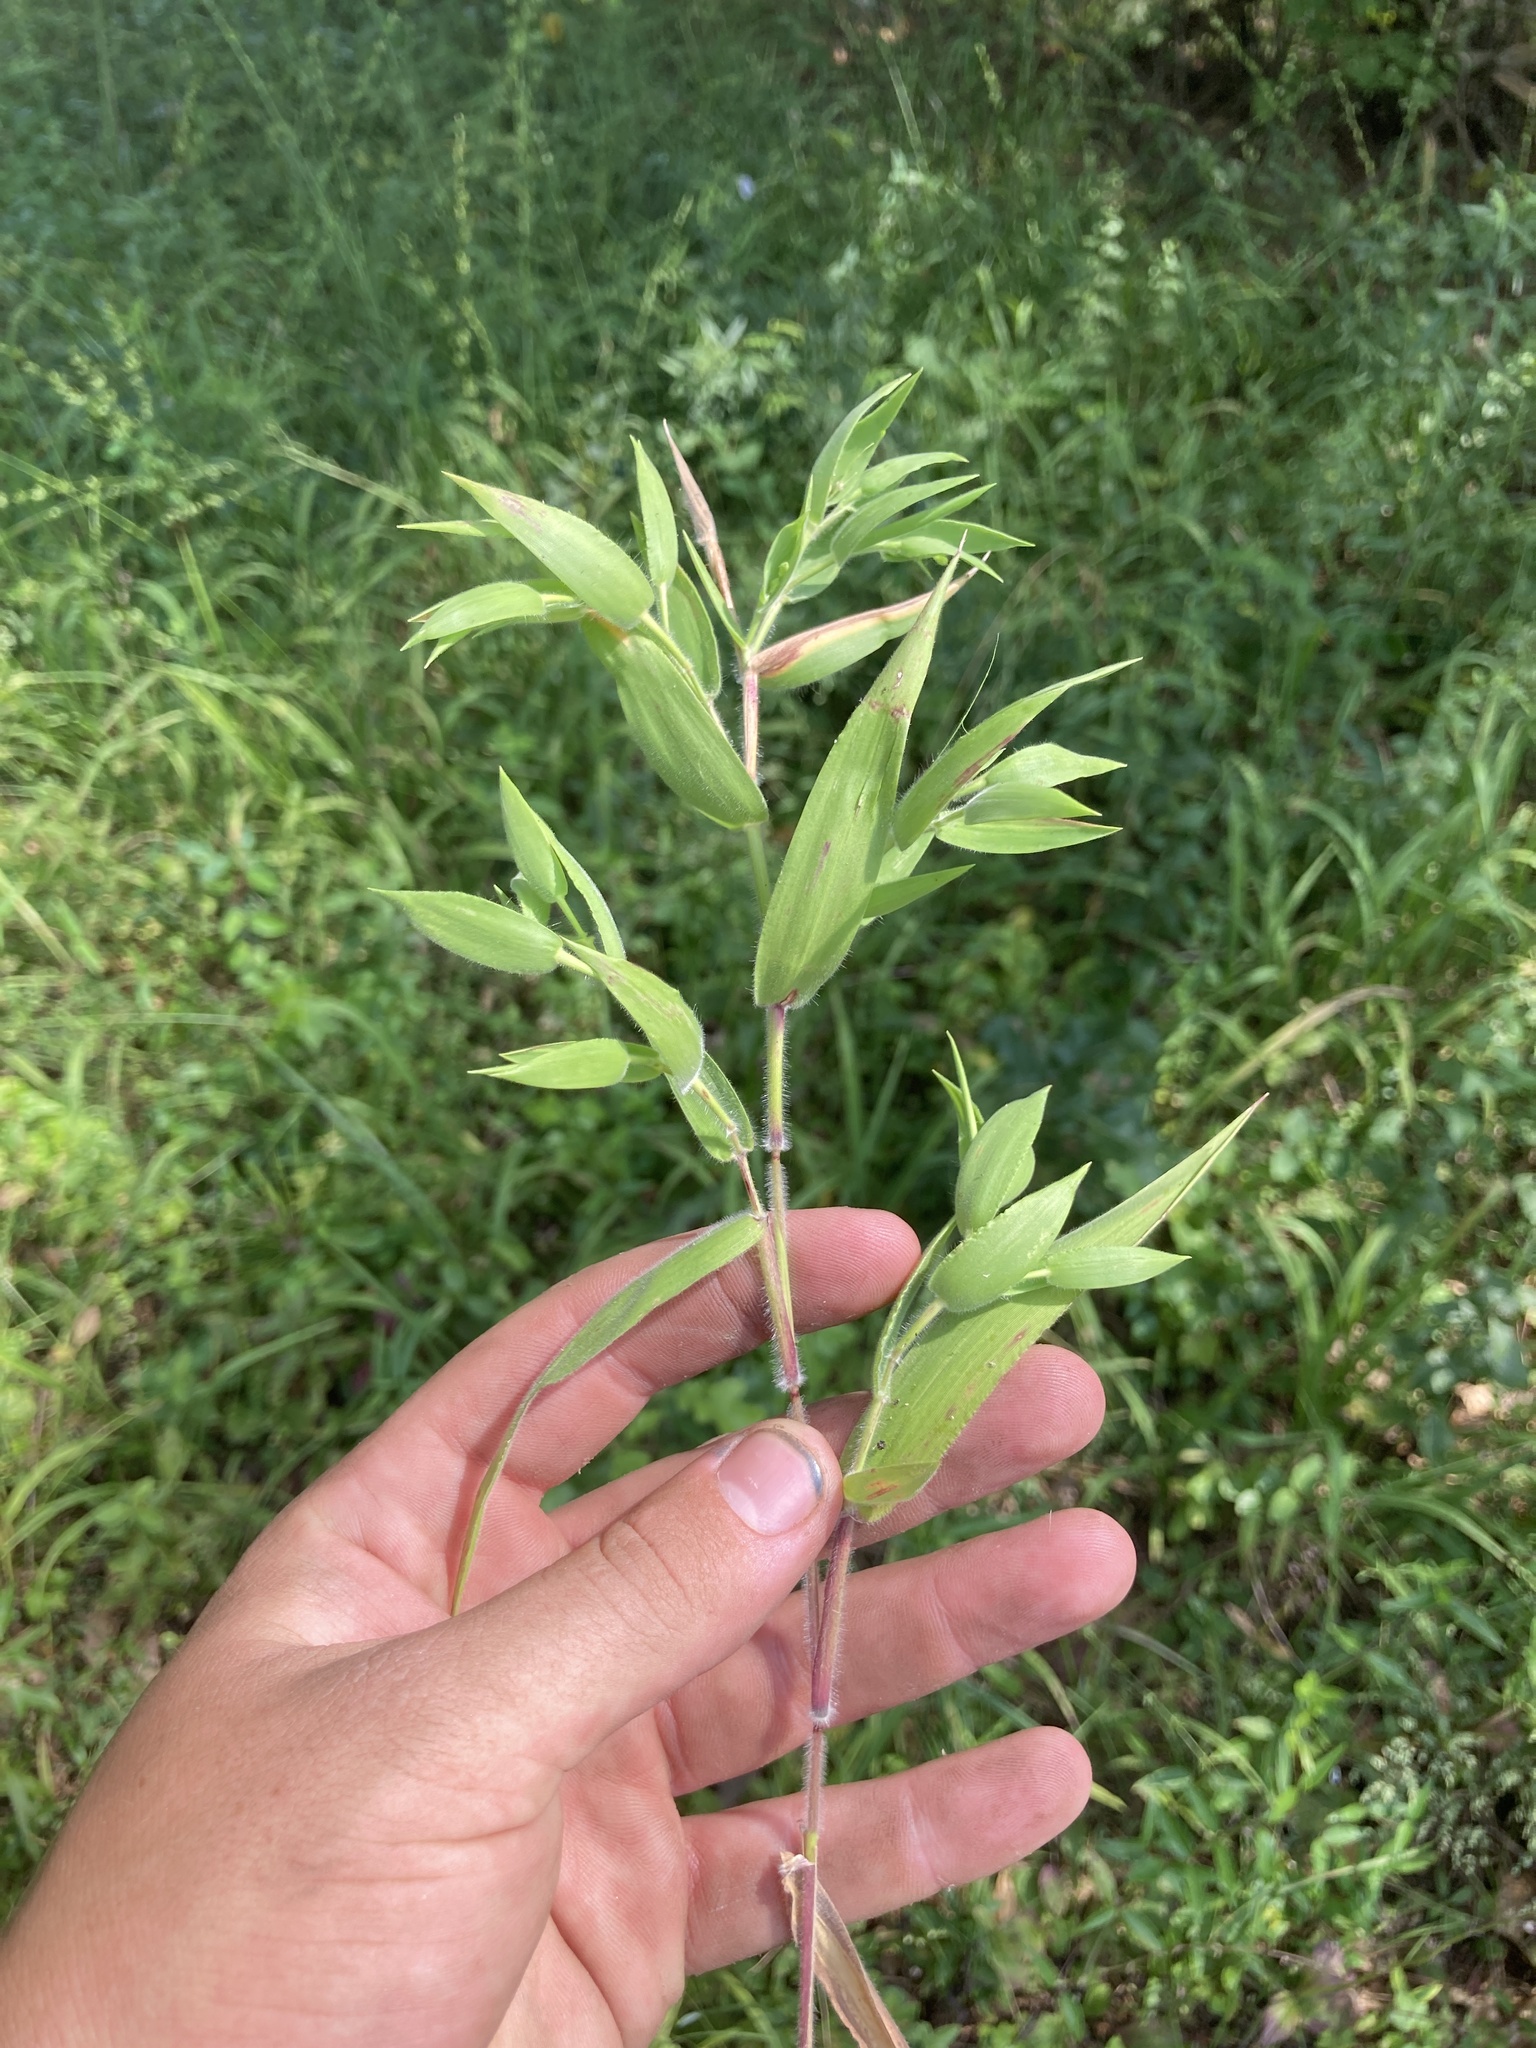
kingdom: Plantae
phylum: Tracheophyta
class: Liliopsida
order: Poales
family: Poaceae
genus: Dichanthelium
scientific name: Dichanthelium scoparium
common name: Velvety panic grass
